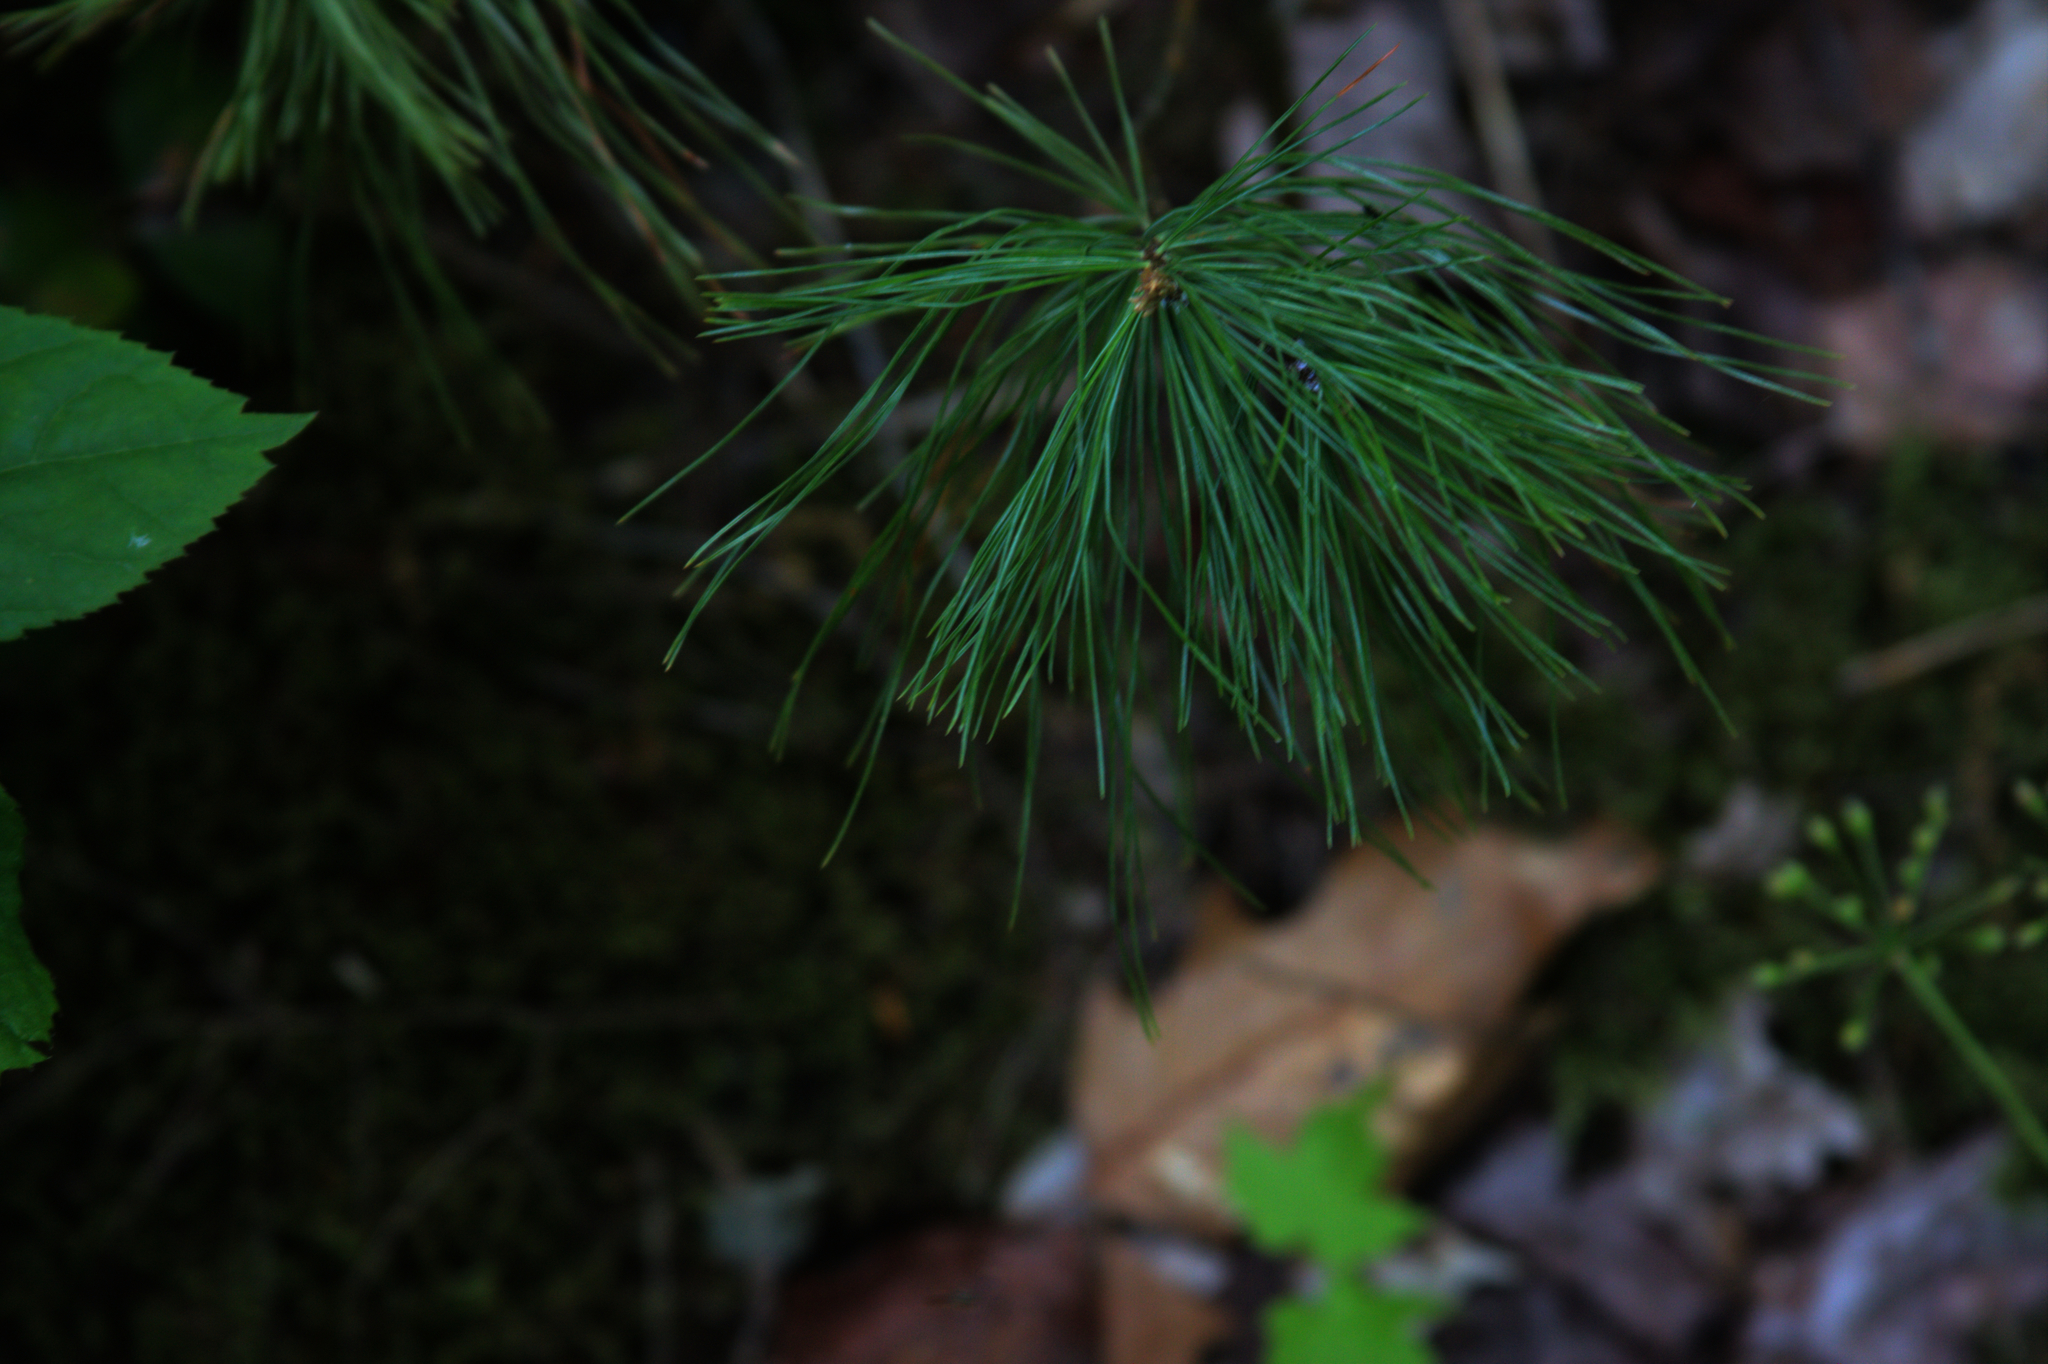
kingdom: Plantae
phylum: Tracheophyta
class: Pinopsida
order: Pinales
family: Pinaceae
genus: Pinus
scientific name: Pinus strobus
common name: Weymouth pine
